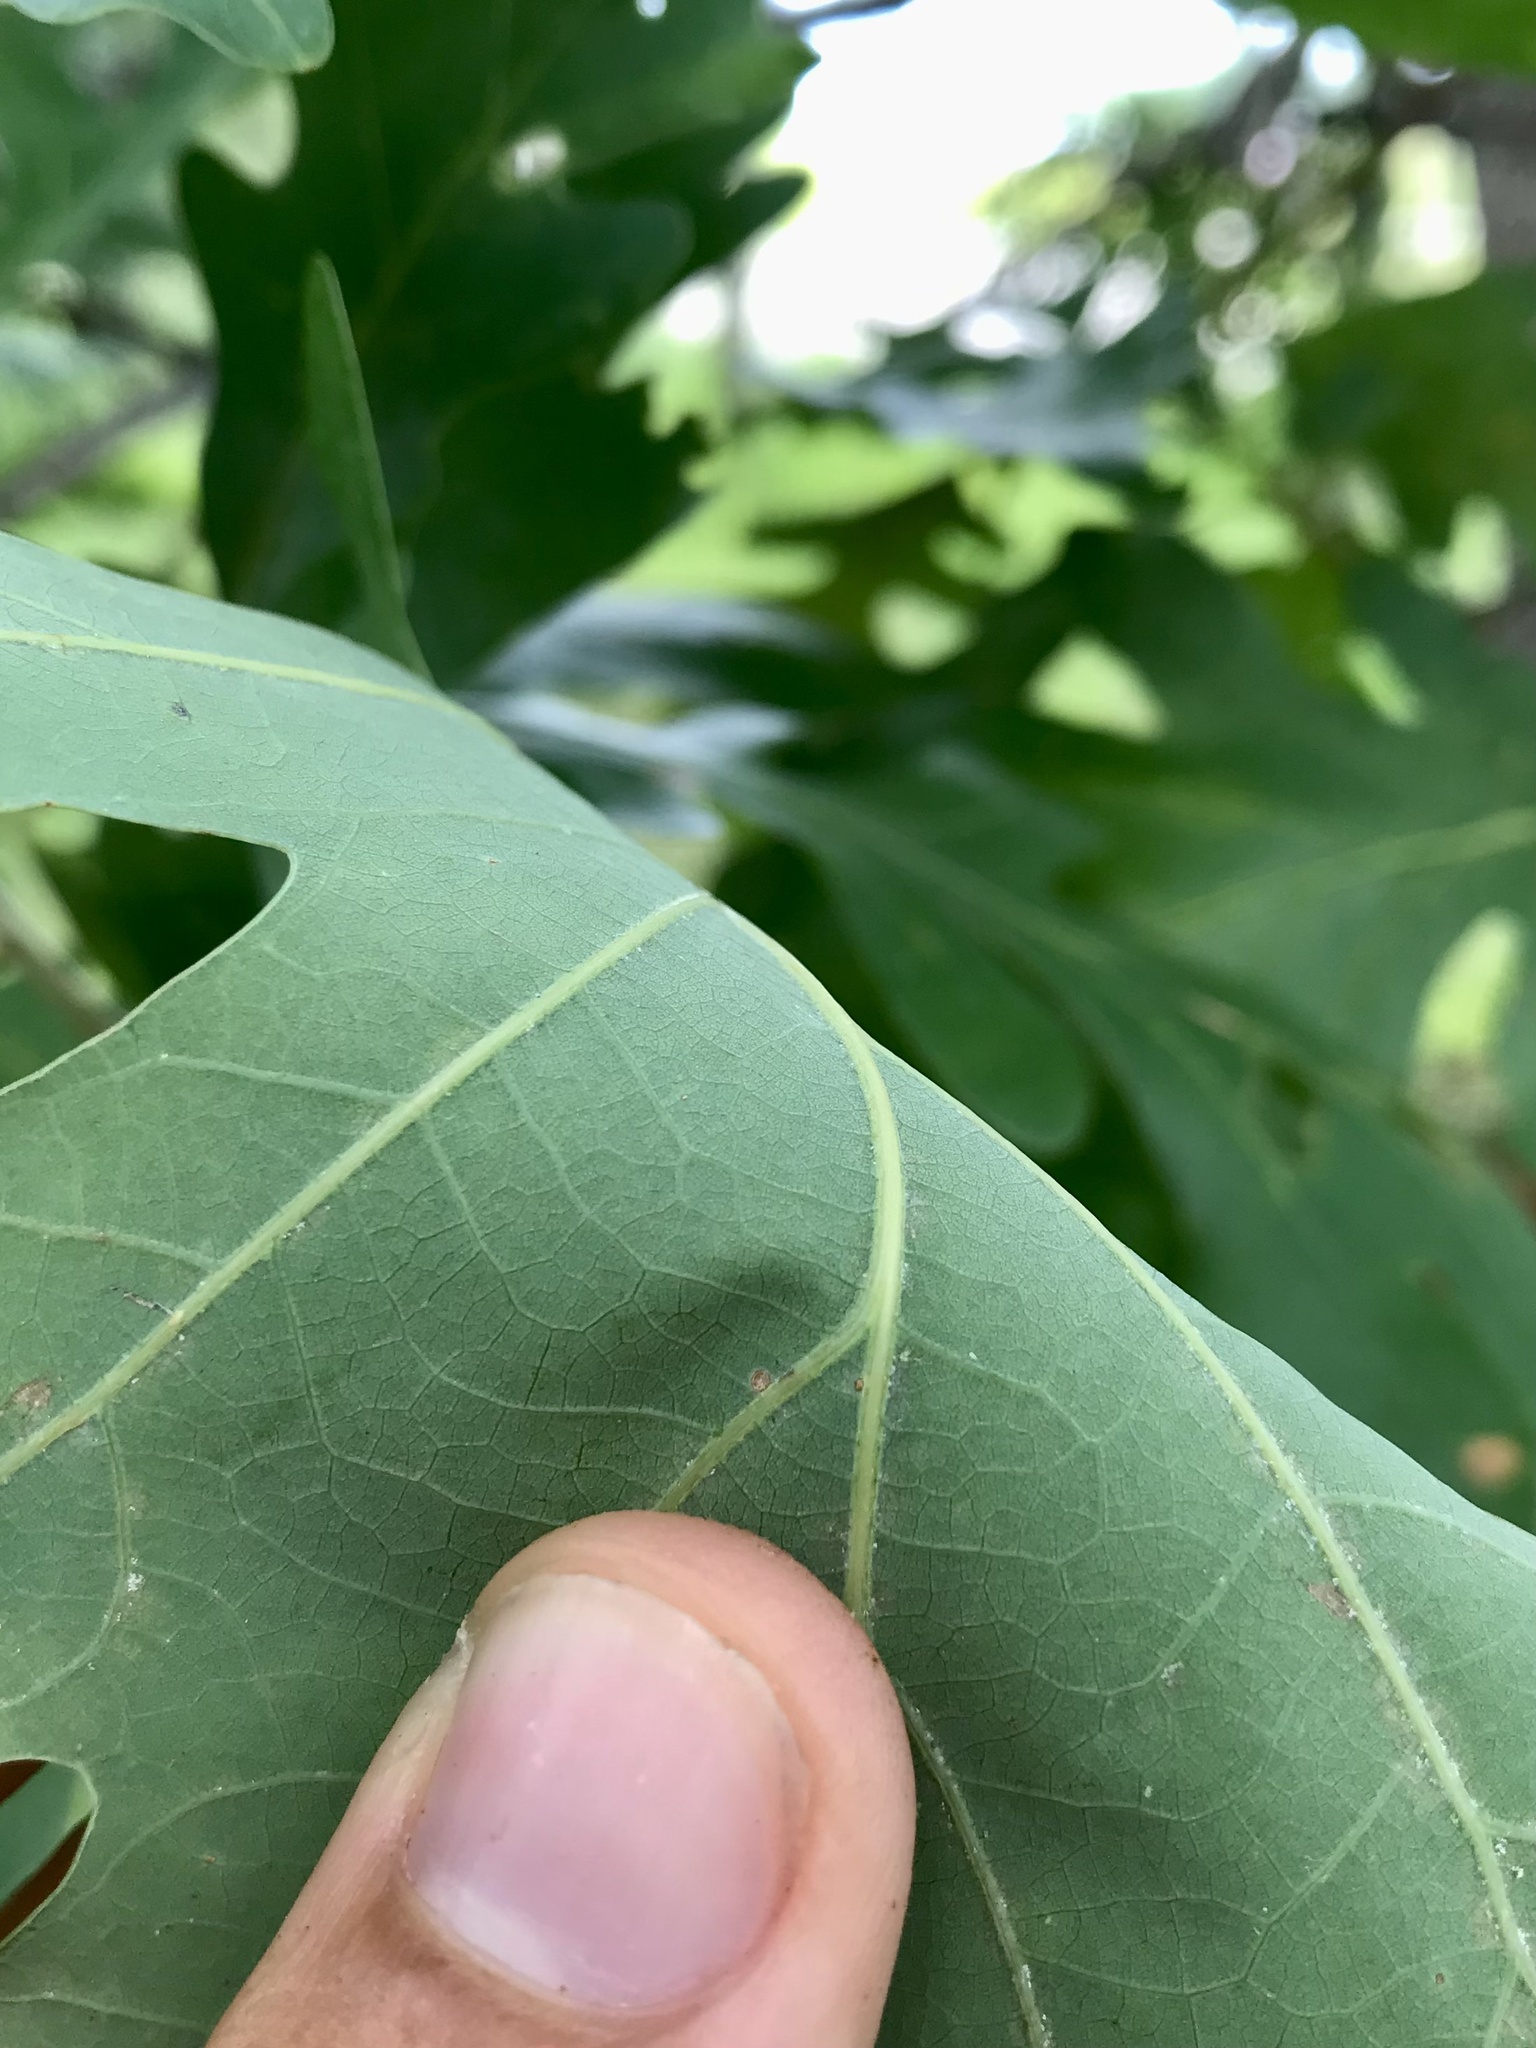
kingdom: Plantae
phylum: Tracheophyta
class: Magnoliopsida
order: Fagales
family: Fagaceae
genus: Quercus
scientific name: Quercus bebbiana
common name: Bebb's oak
